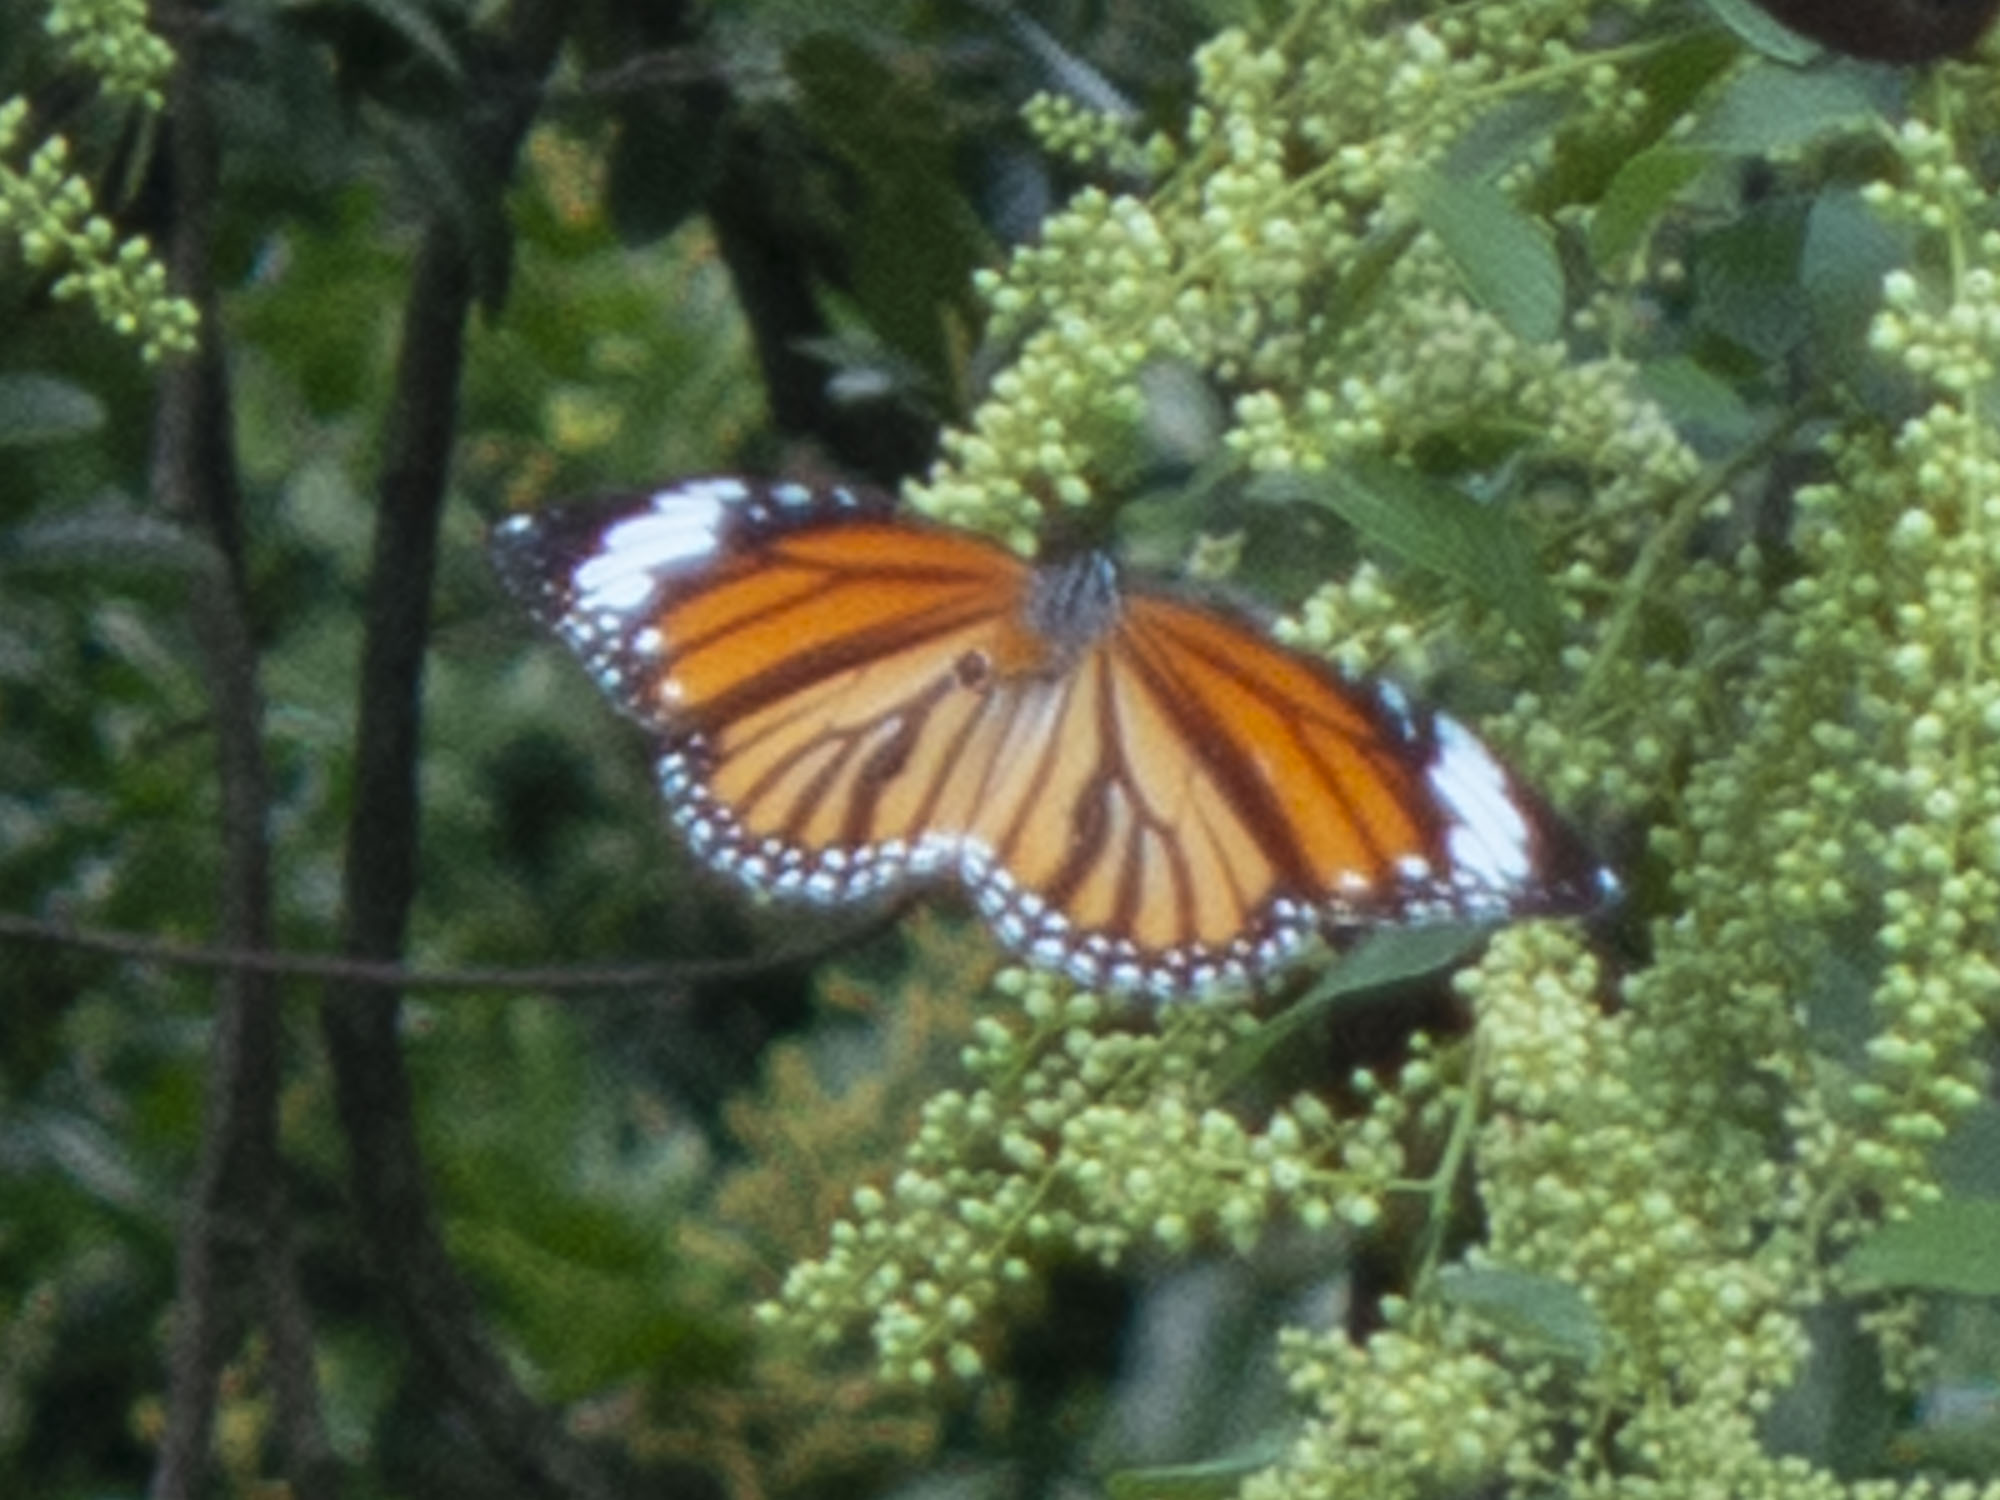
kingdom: Animalia
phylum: Arthropoda
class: Insecta
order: Lepidoptera
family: Nymphalidae
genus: Danaus
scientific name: Danaus genutia
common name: Common tiger butterfly
